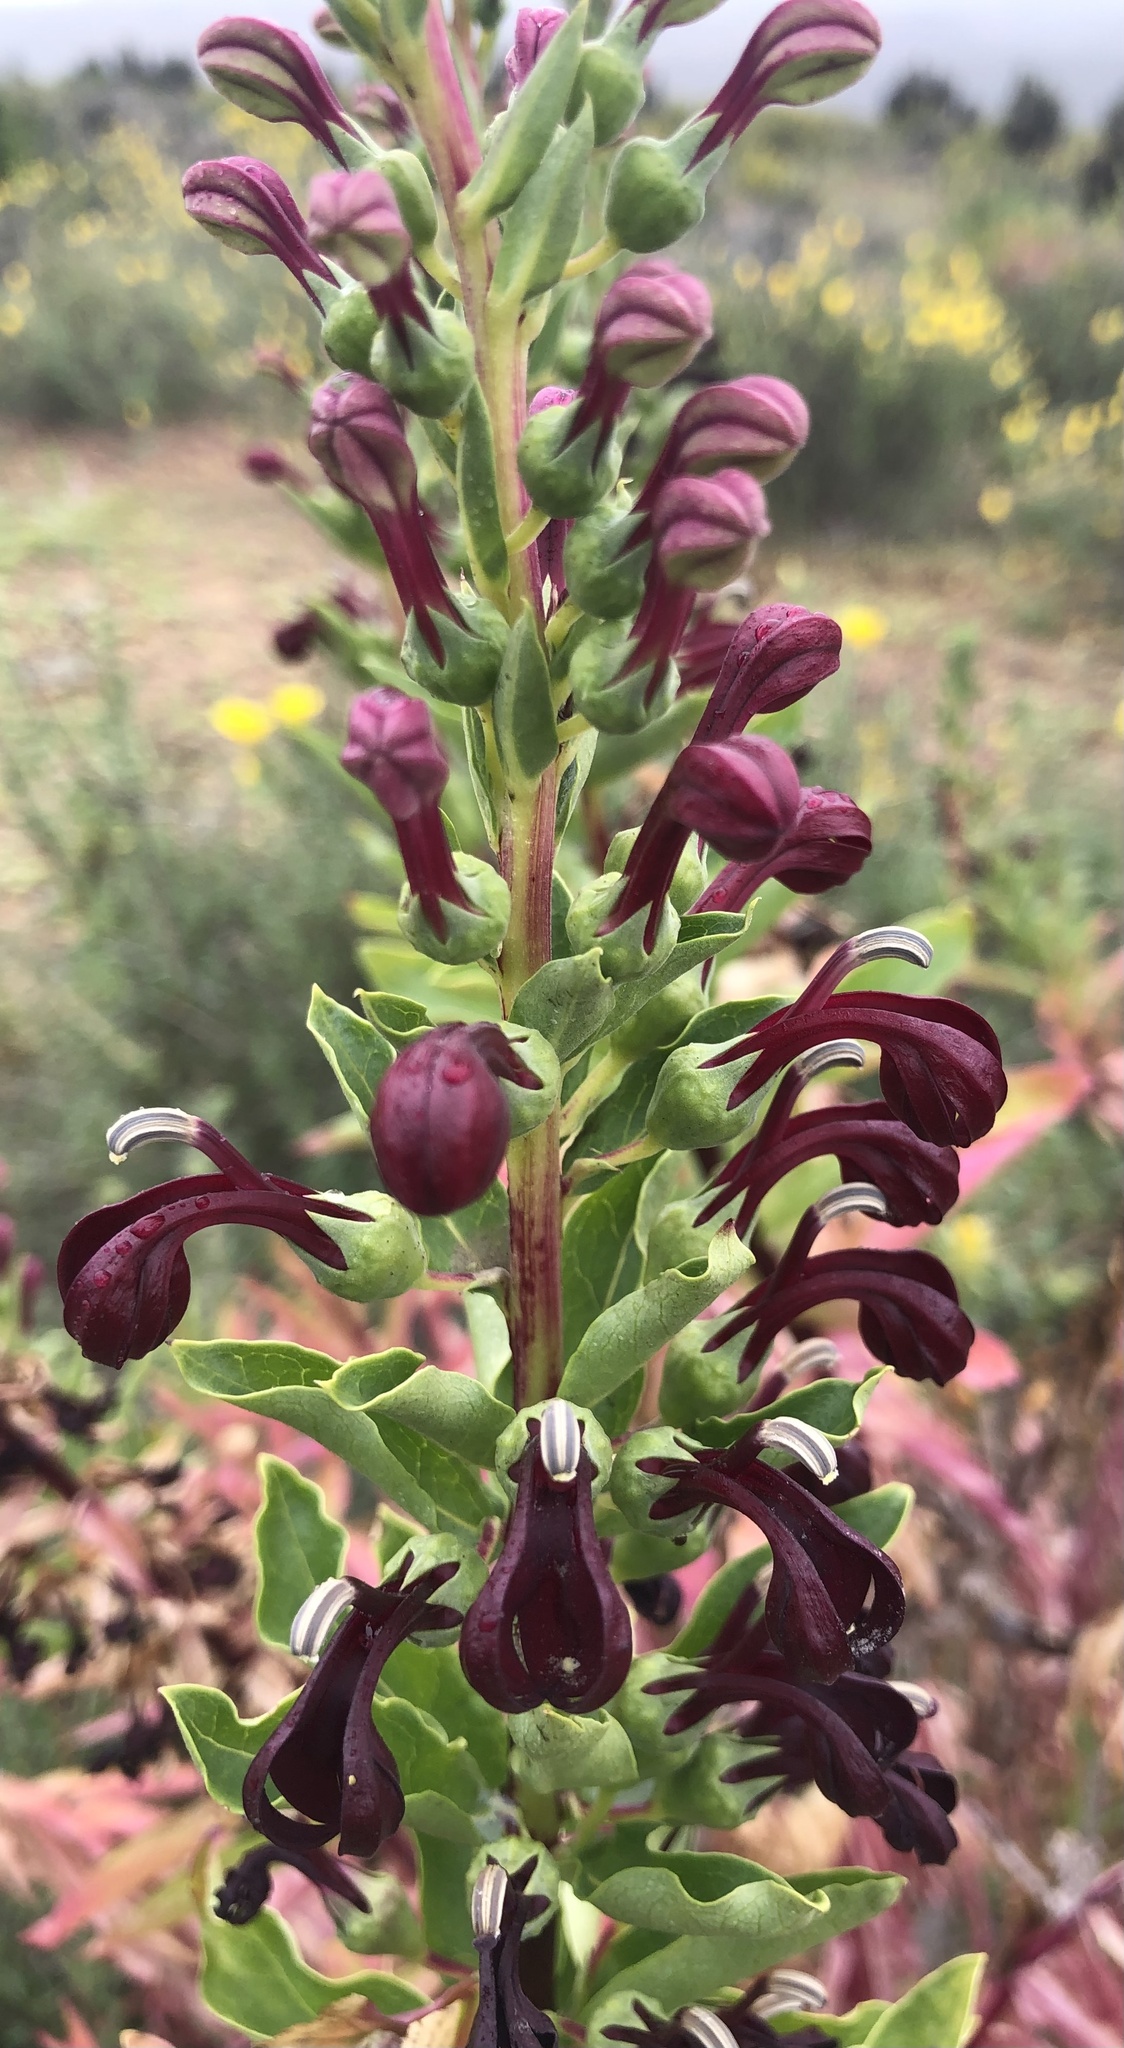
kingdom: Plantae
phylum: Tracheophyta
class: Magnoliopsida
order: Asterales
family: Campanulaceae
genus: Lobelia
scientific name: Lobelia polyphylla
